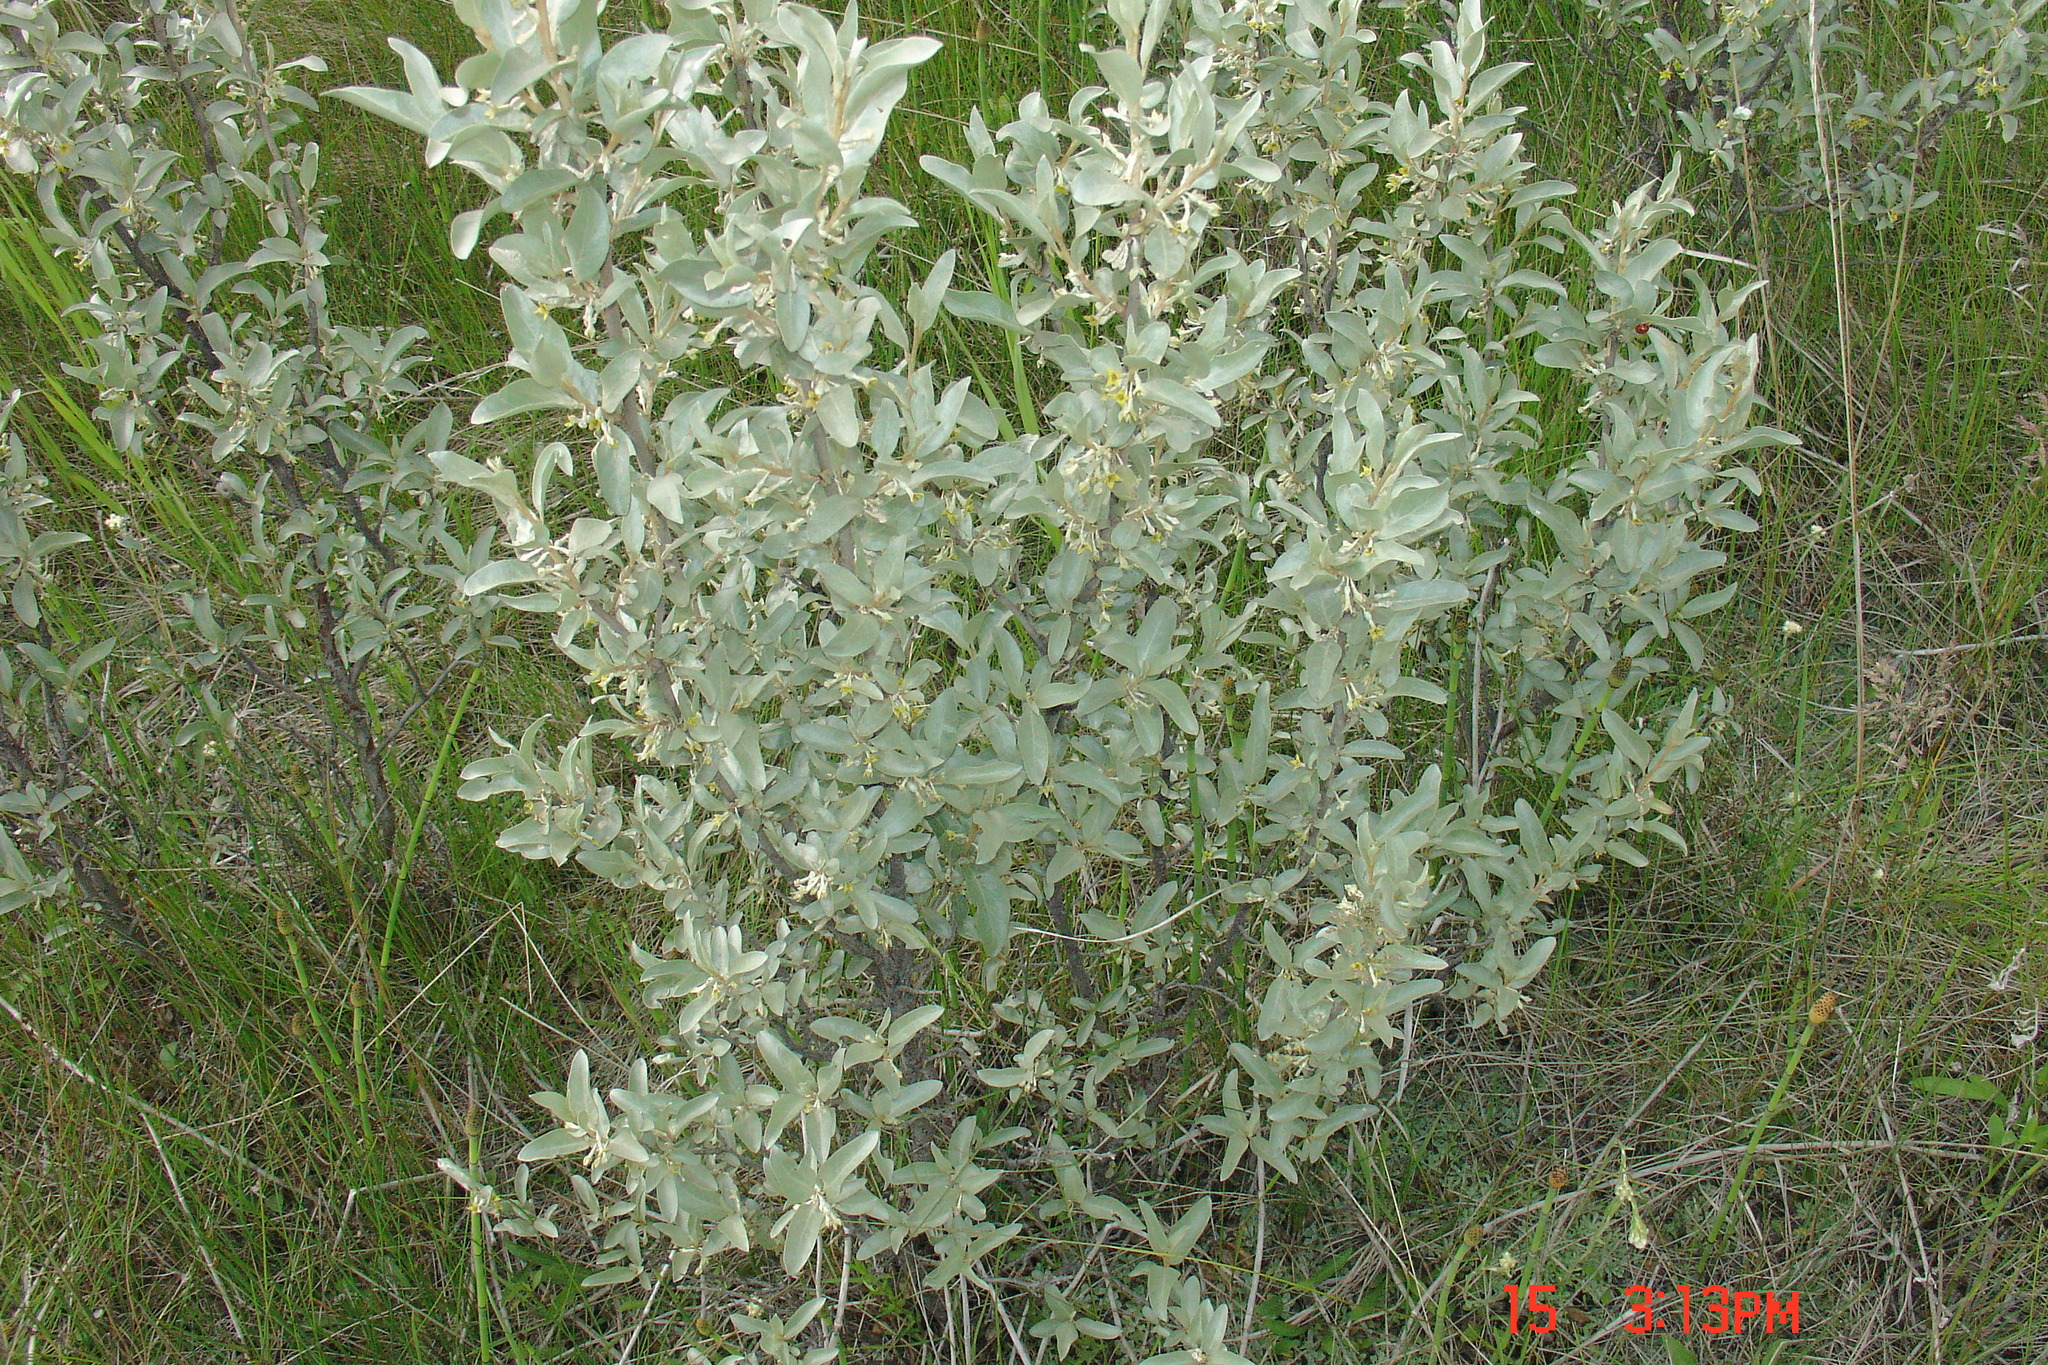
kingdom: Plantae
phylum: Tracheophyta
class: Magnoliopsida
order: Rosales
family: Elaeagnaceae
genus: Elaeagnus
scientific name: Elaeagnus commutata
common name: Silverberry
